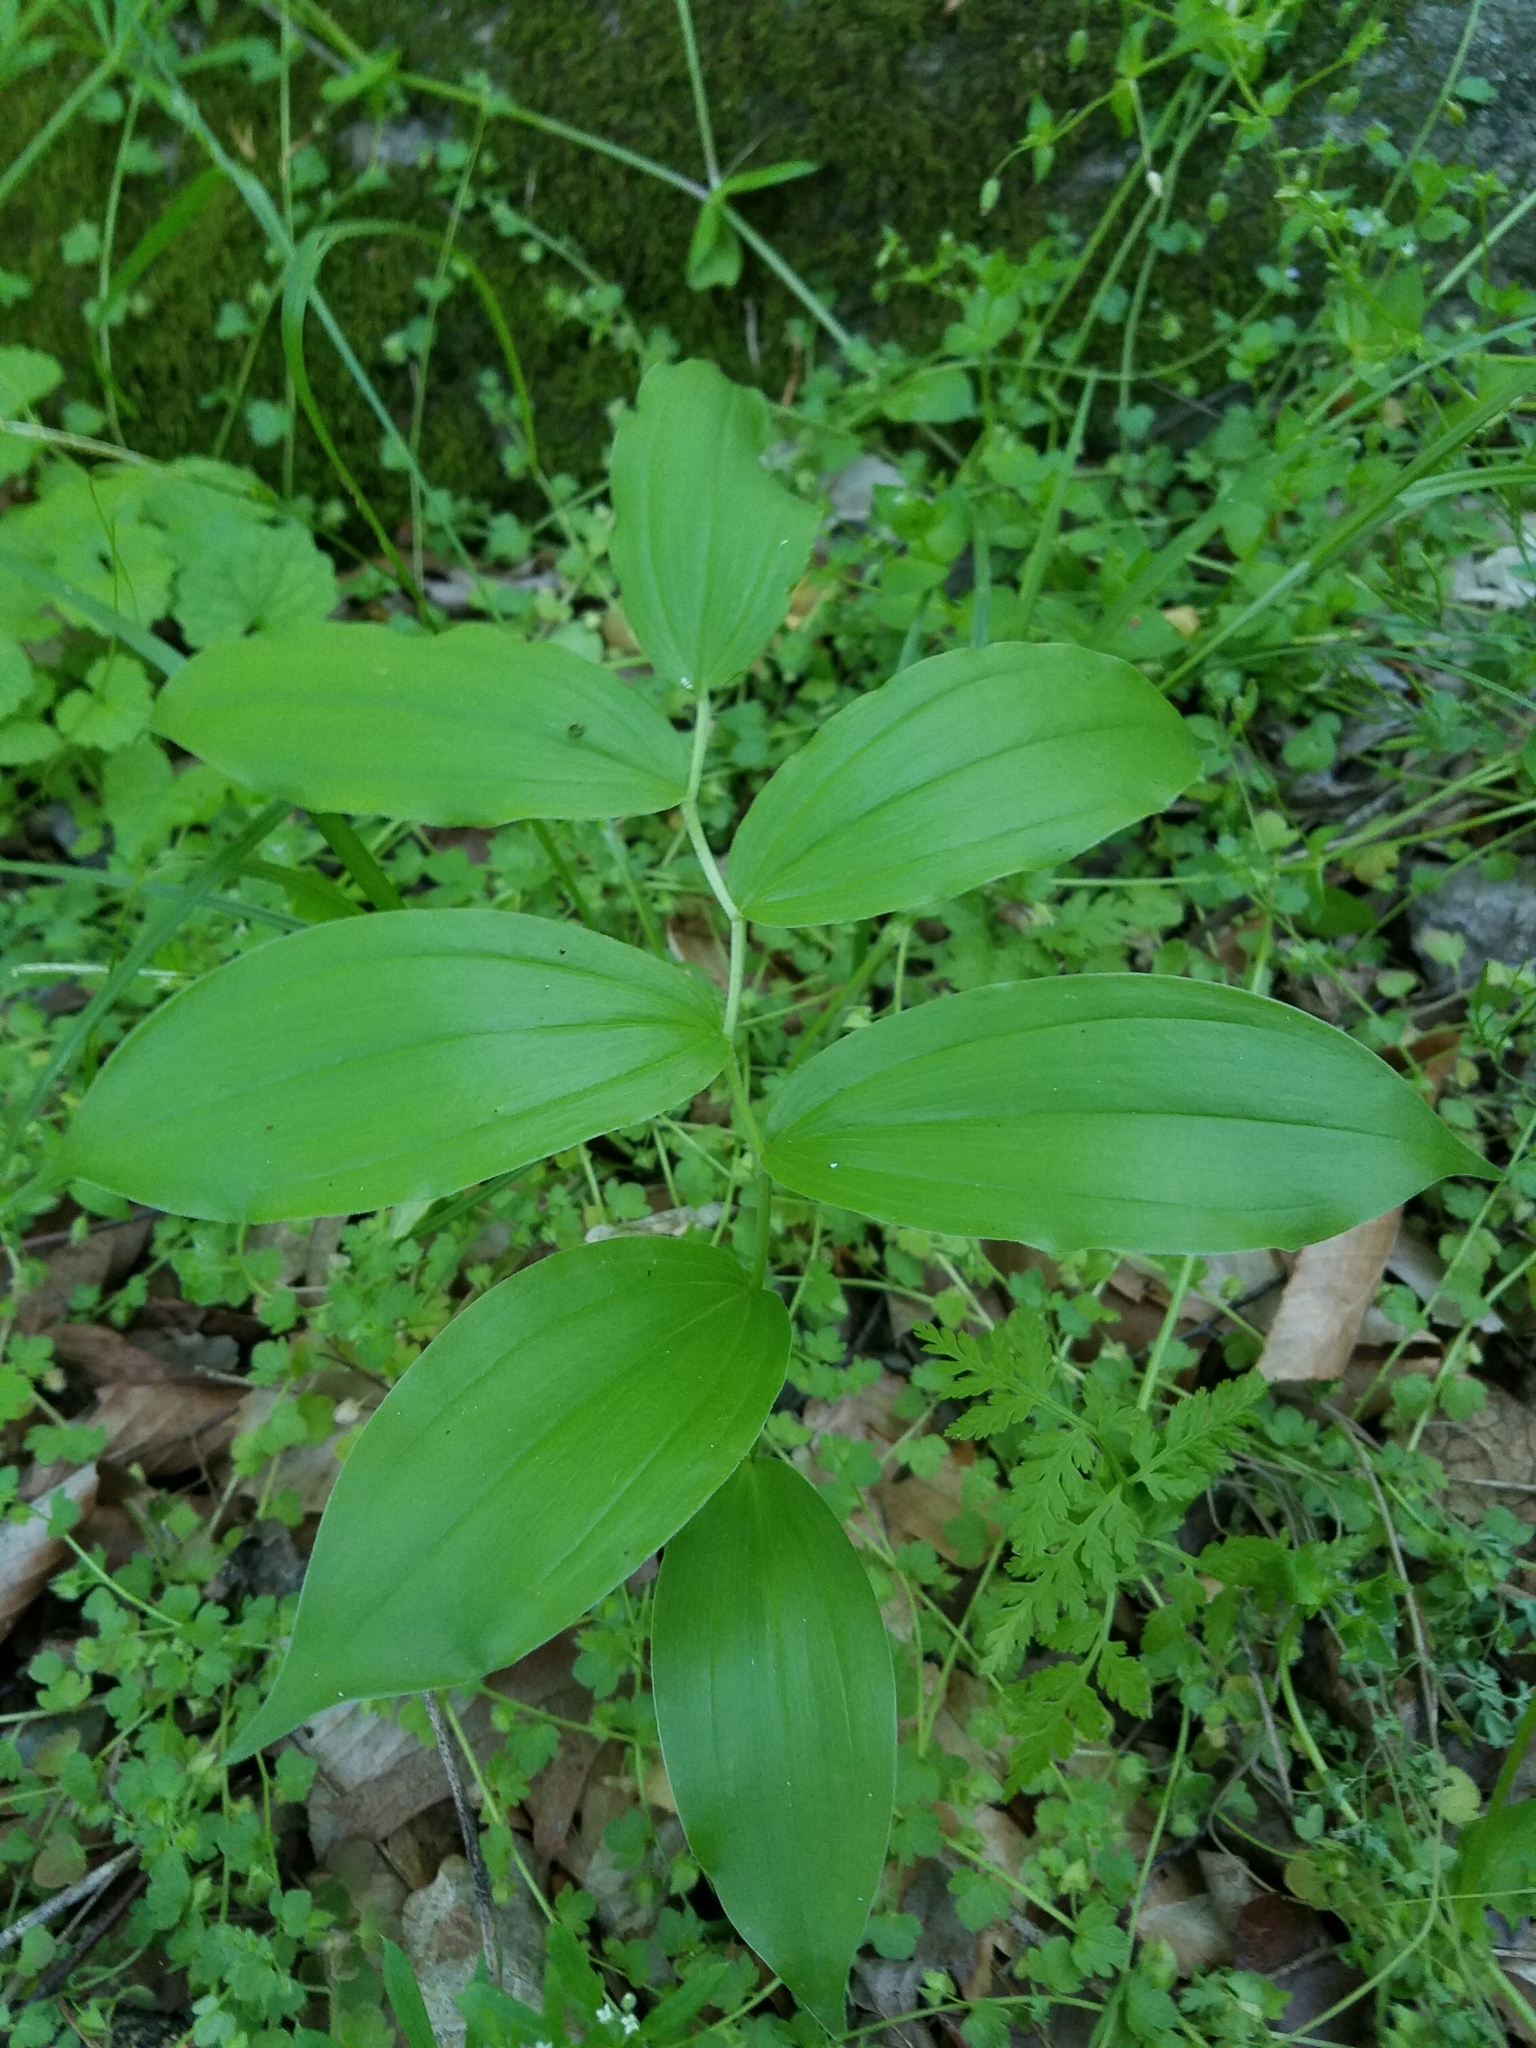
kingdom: Plantae
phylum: Tracheophyta
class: Liliopsida
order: Asparagales
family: Asparagaceae
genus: Maianthemum
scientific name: Maianthemum racemosum
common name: False spikenard
